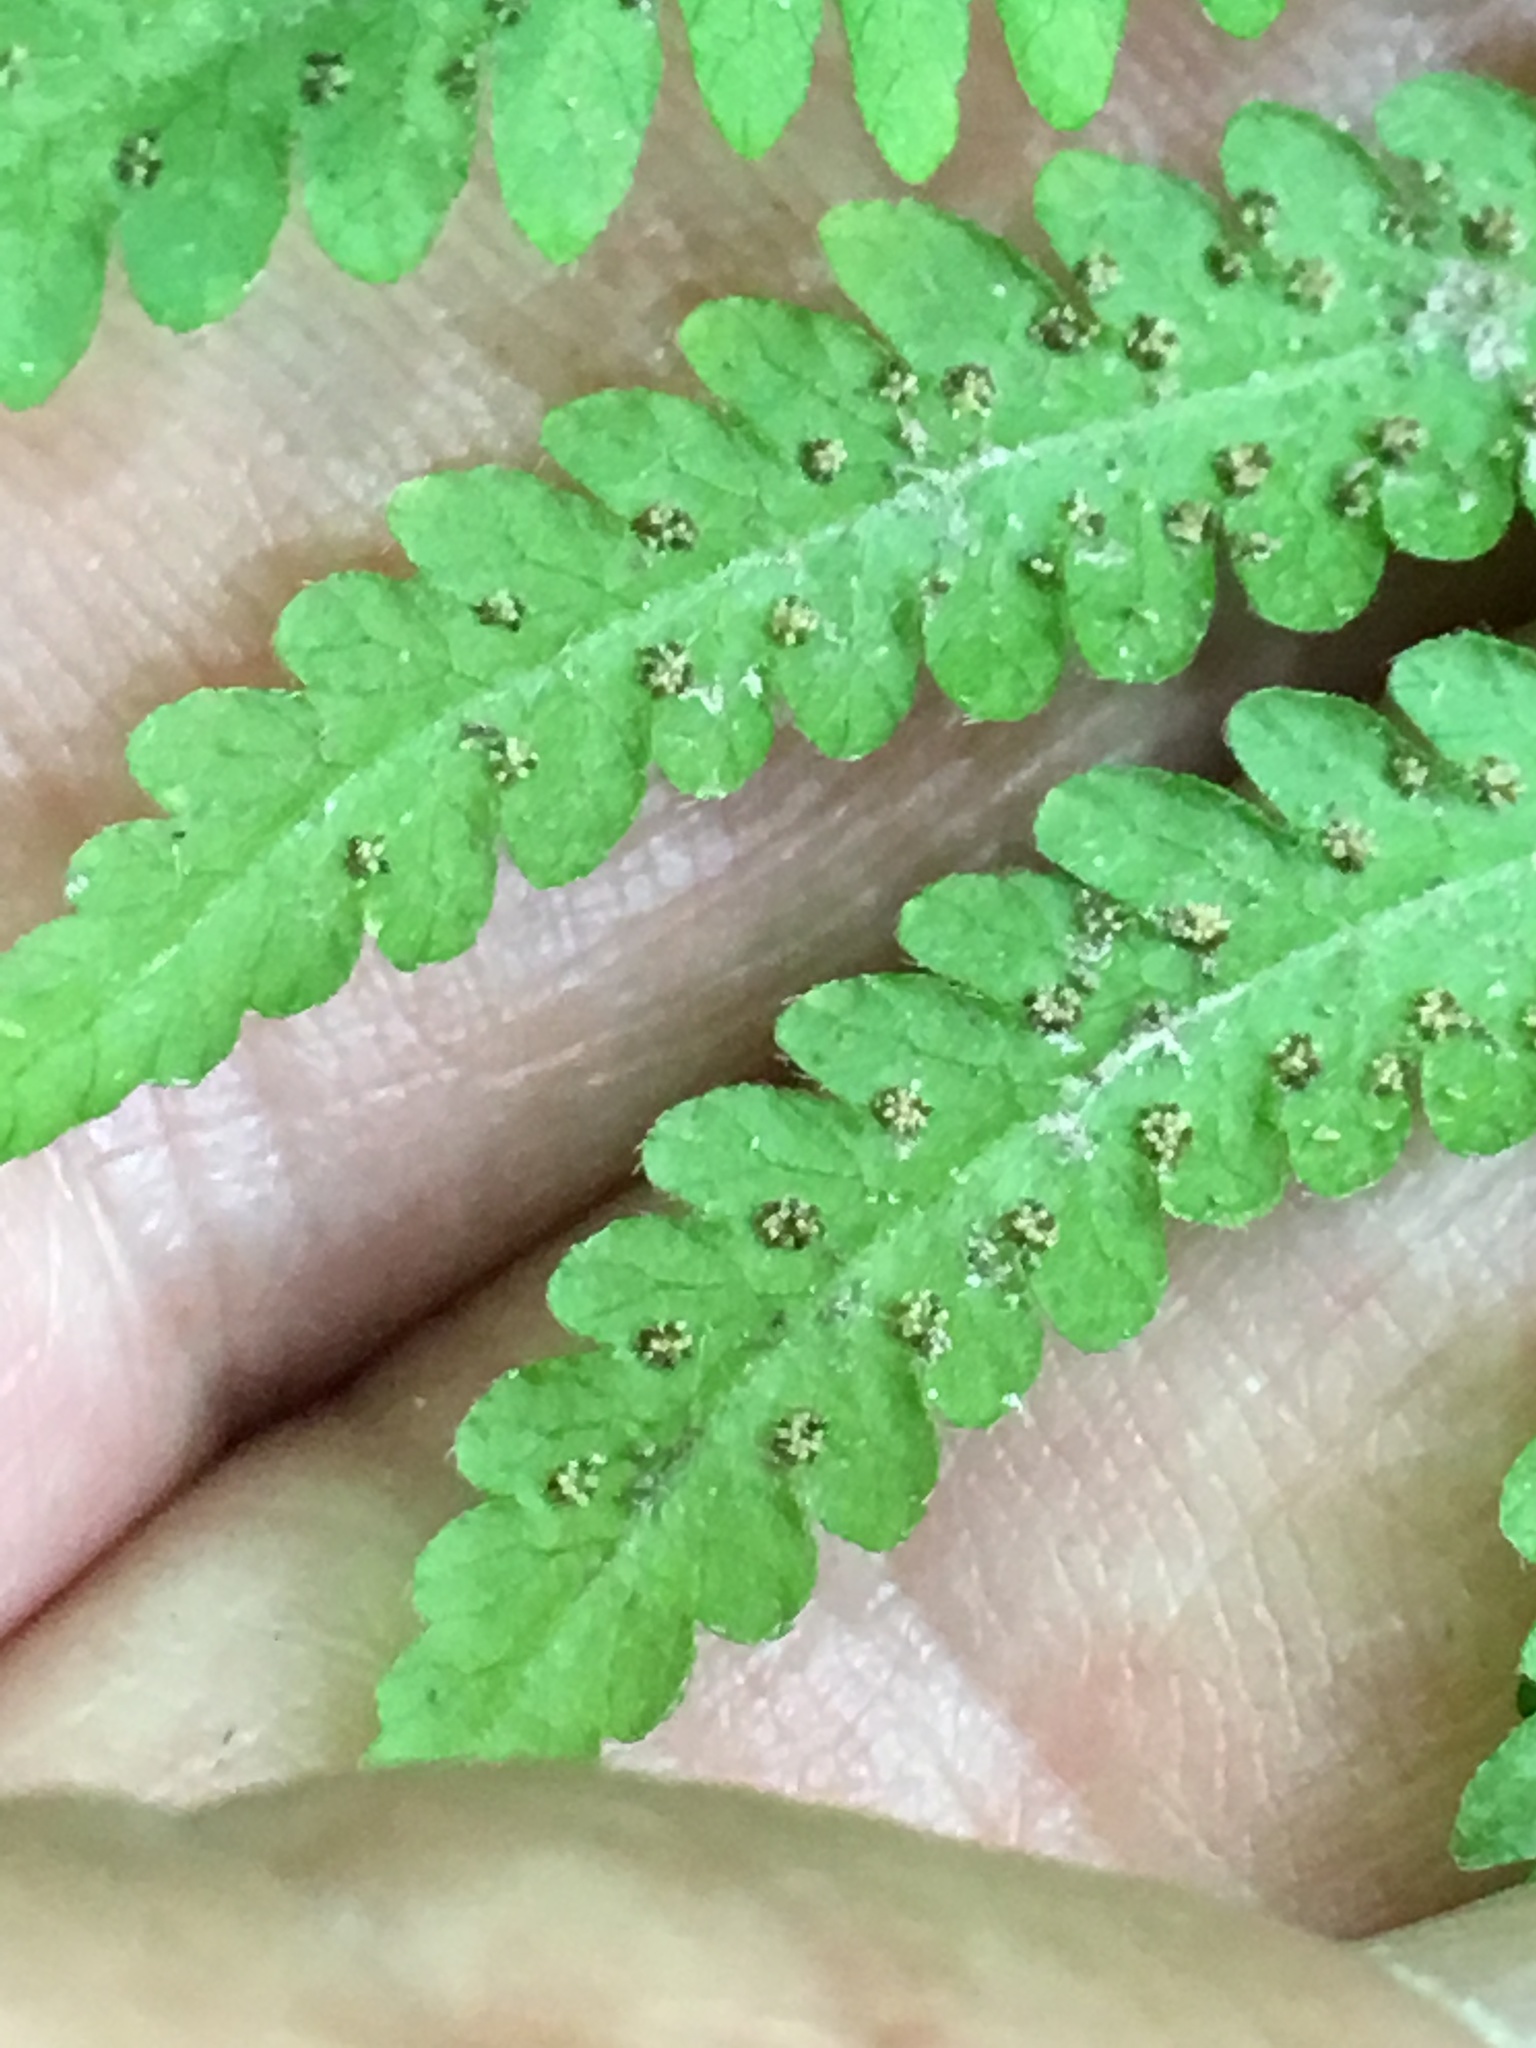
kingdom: Plantae
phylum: Tracheophyta
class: Polypodiopsida
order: Polypodiales
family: Thelypteridaceae
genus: Phegopteris
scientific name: Phegopteris hexagonoptera
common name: Broad beech fern
